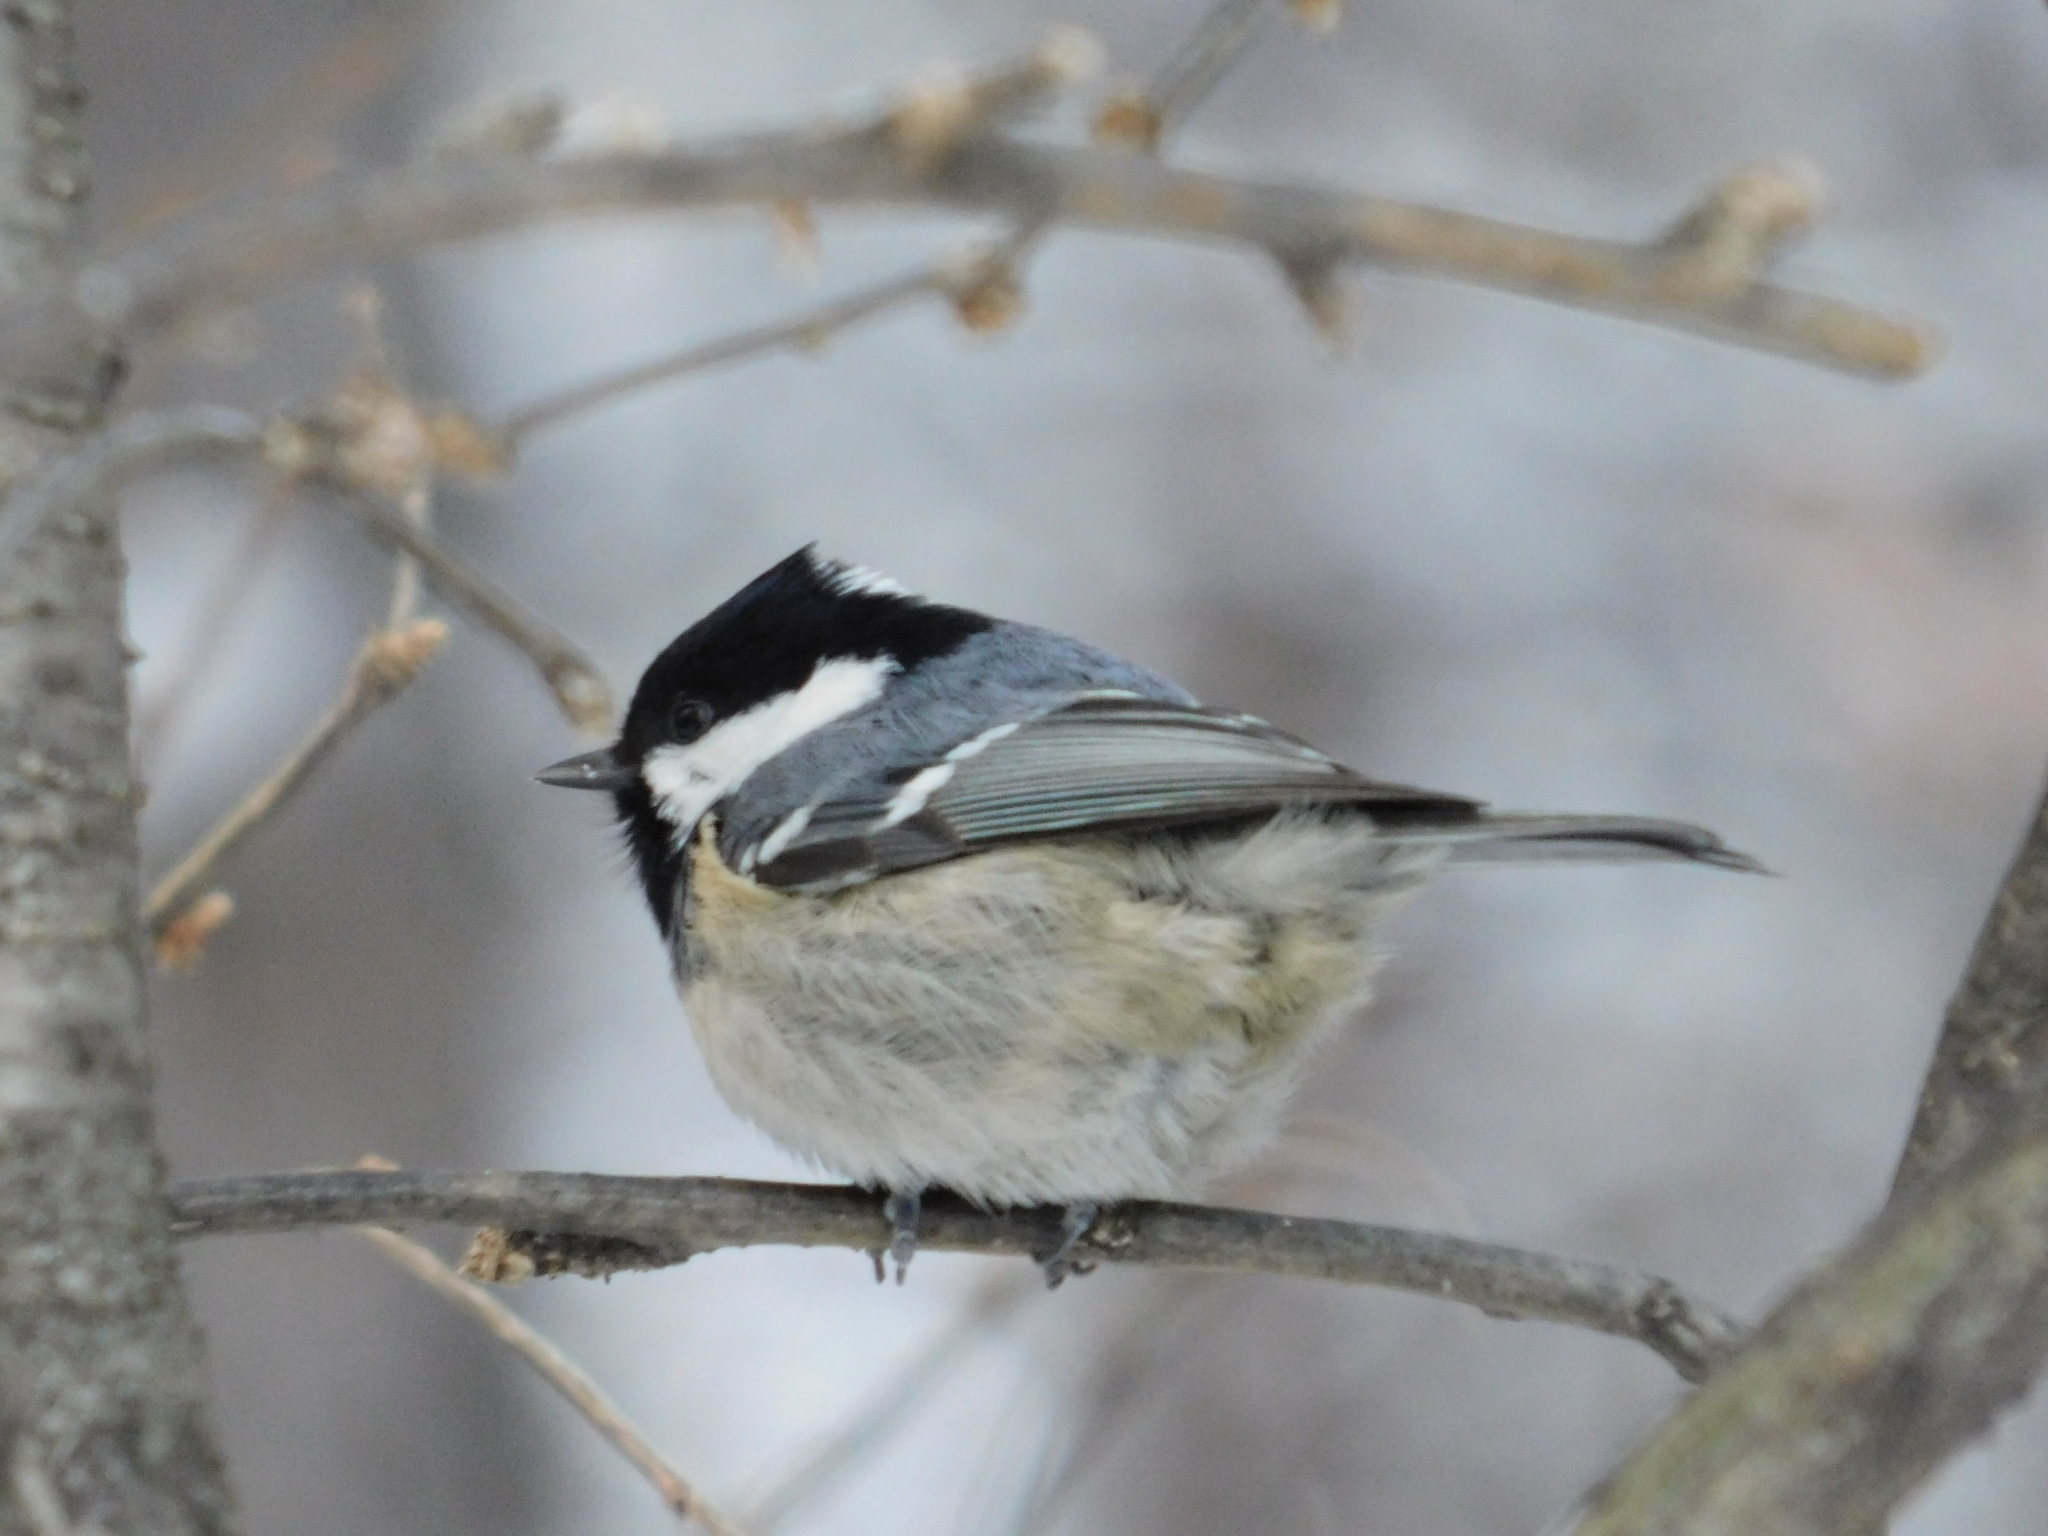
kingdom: Animalia
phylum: Chordata
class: Aves
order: Passeriformes
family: Paridae
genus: Periparus
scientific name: Periparus ater
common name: Coal tit
